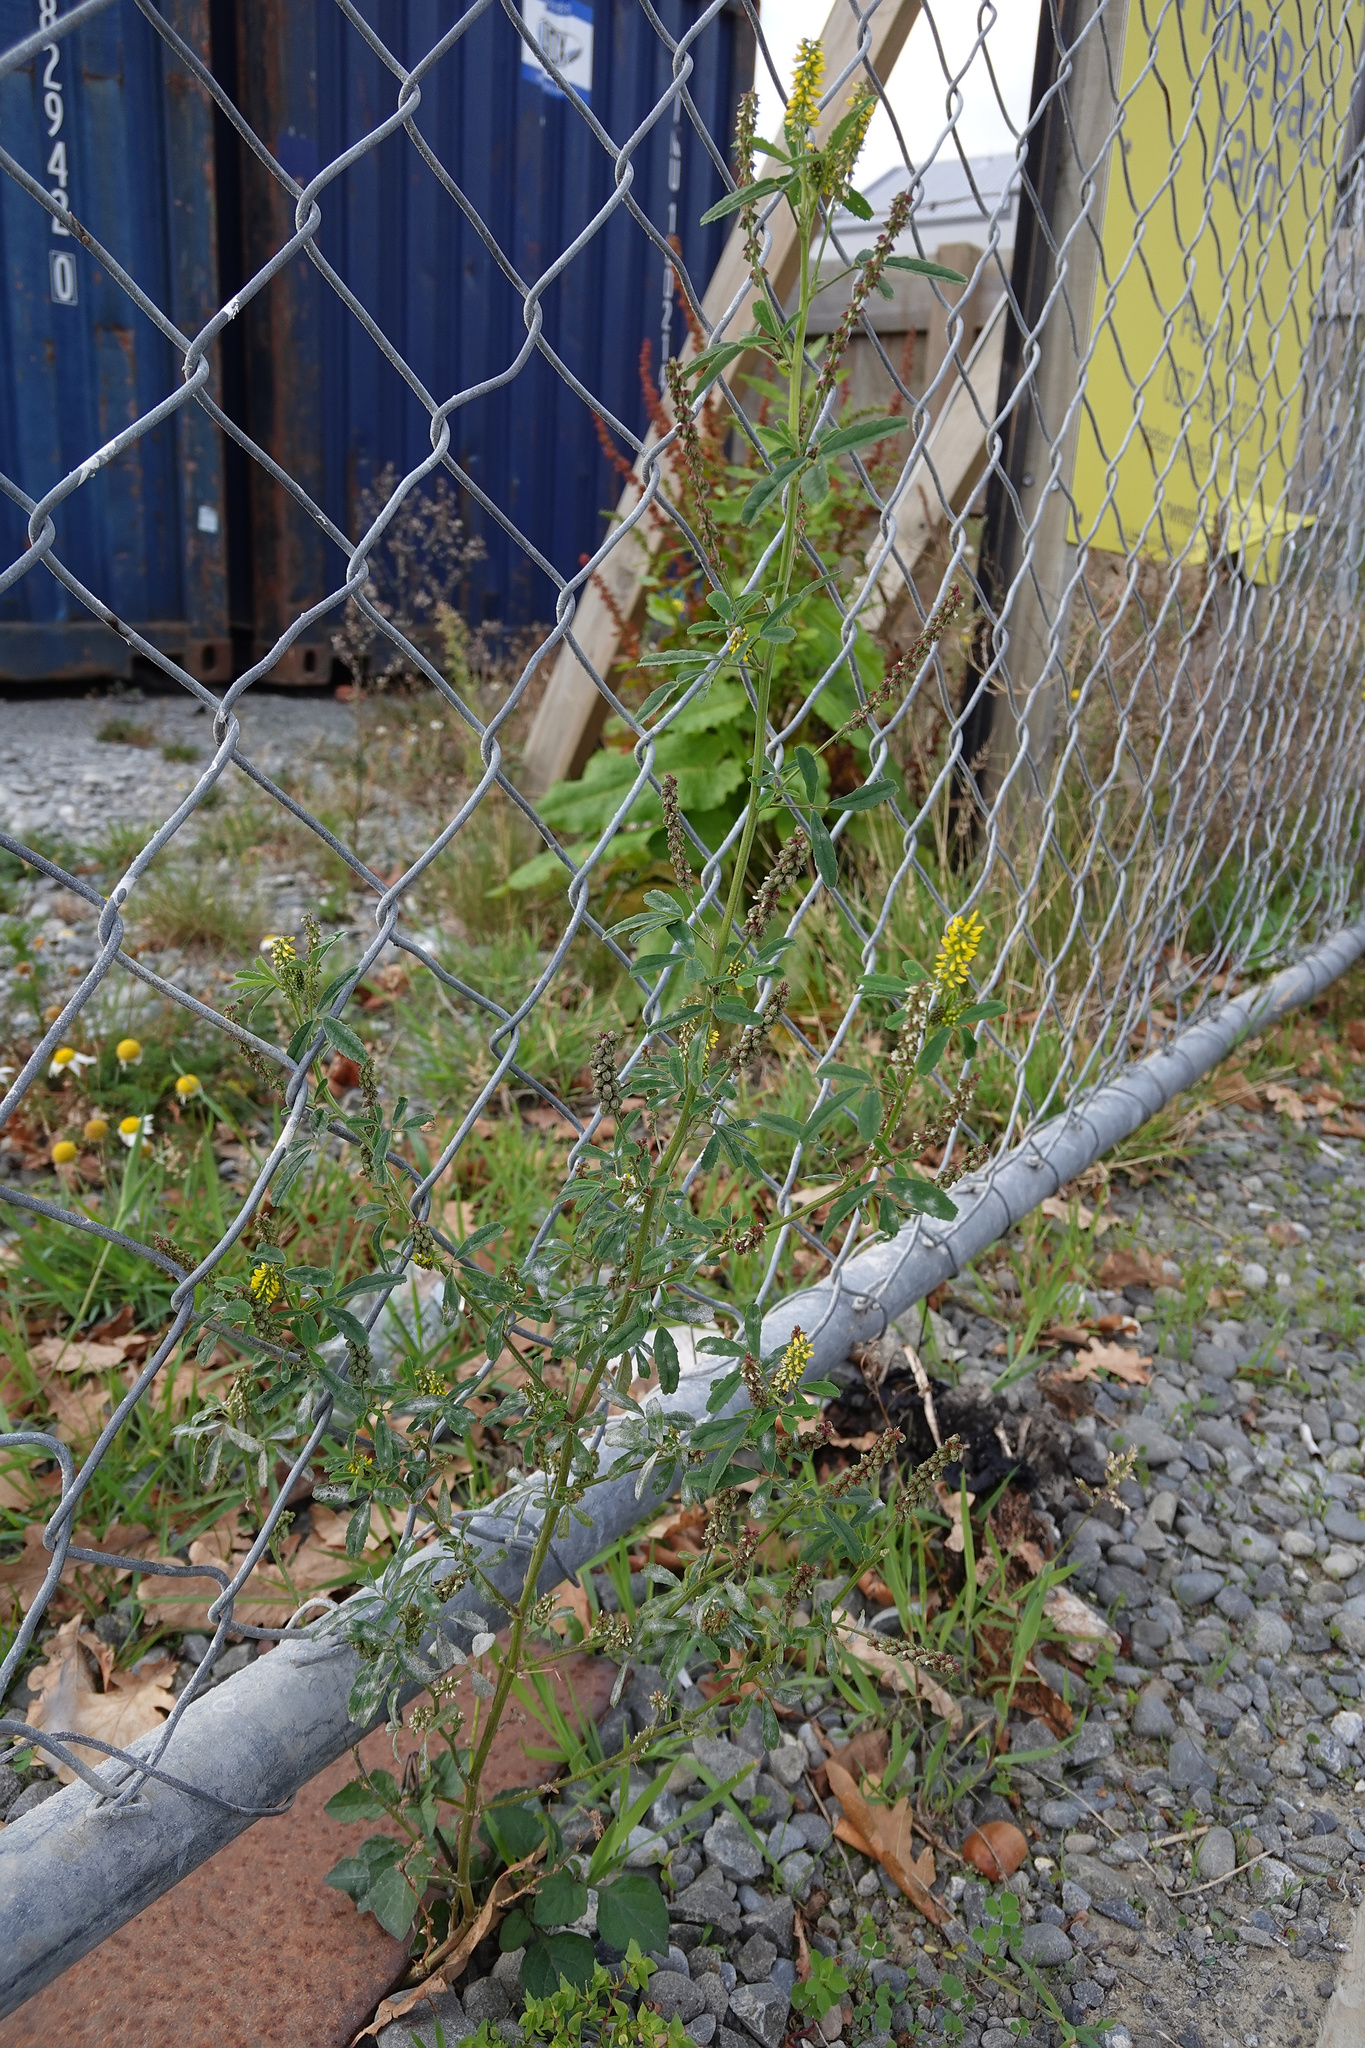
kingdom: Plantae
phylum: Tracheophyta
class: Magnoliopsida
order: Fabales
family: Fabaceae
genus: Melilotus
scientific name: Melilotus indicus
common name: Small melilot
